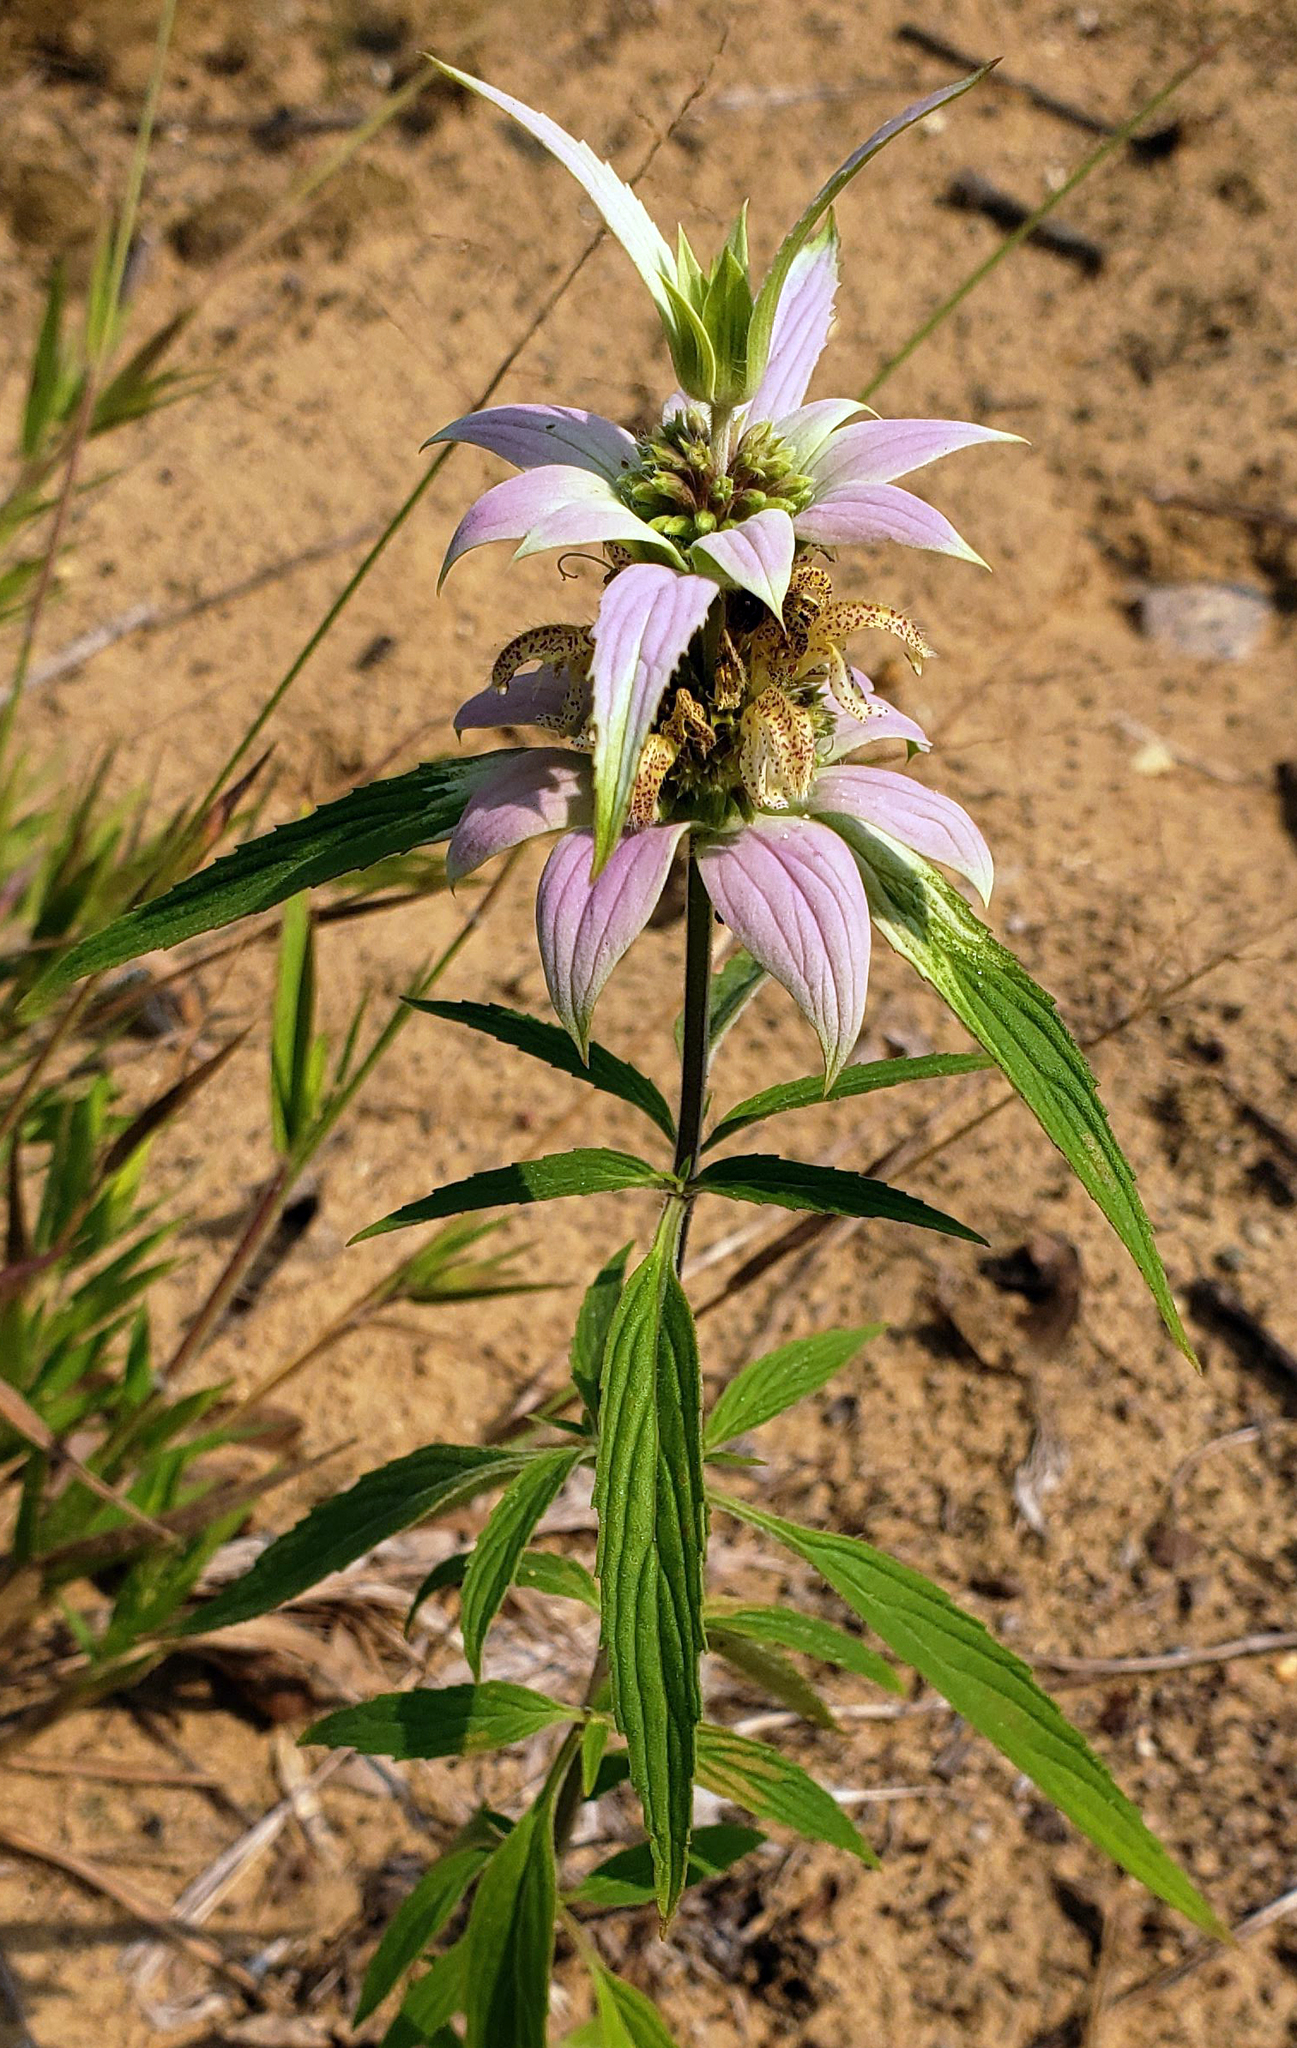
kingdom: Plantae
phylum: Tracheophyta
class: Magnoliopsida
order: Lamiales
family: Lamiaceae
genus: Monarda
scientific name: Monarda punctata
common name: Dotted monarda
